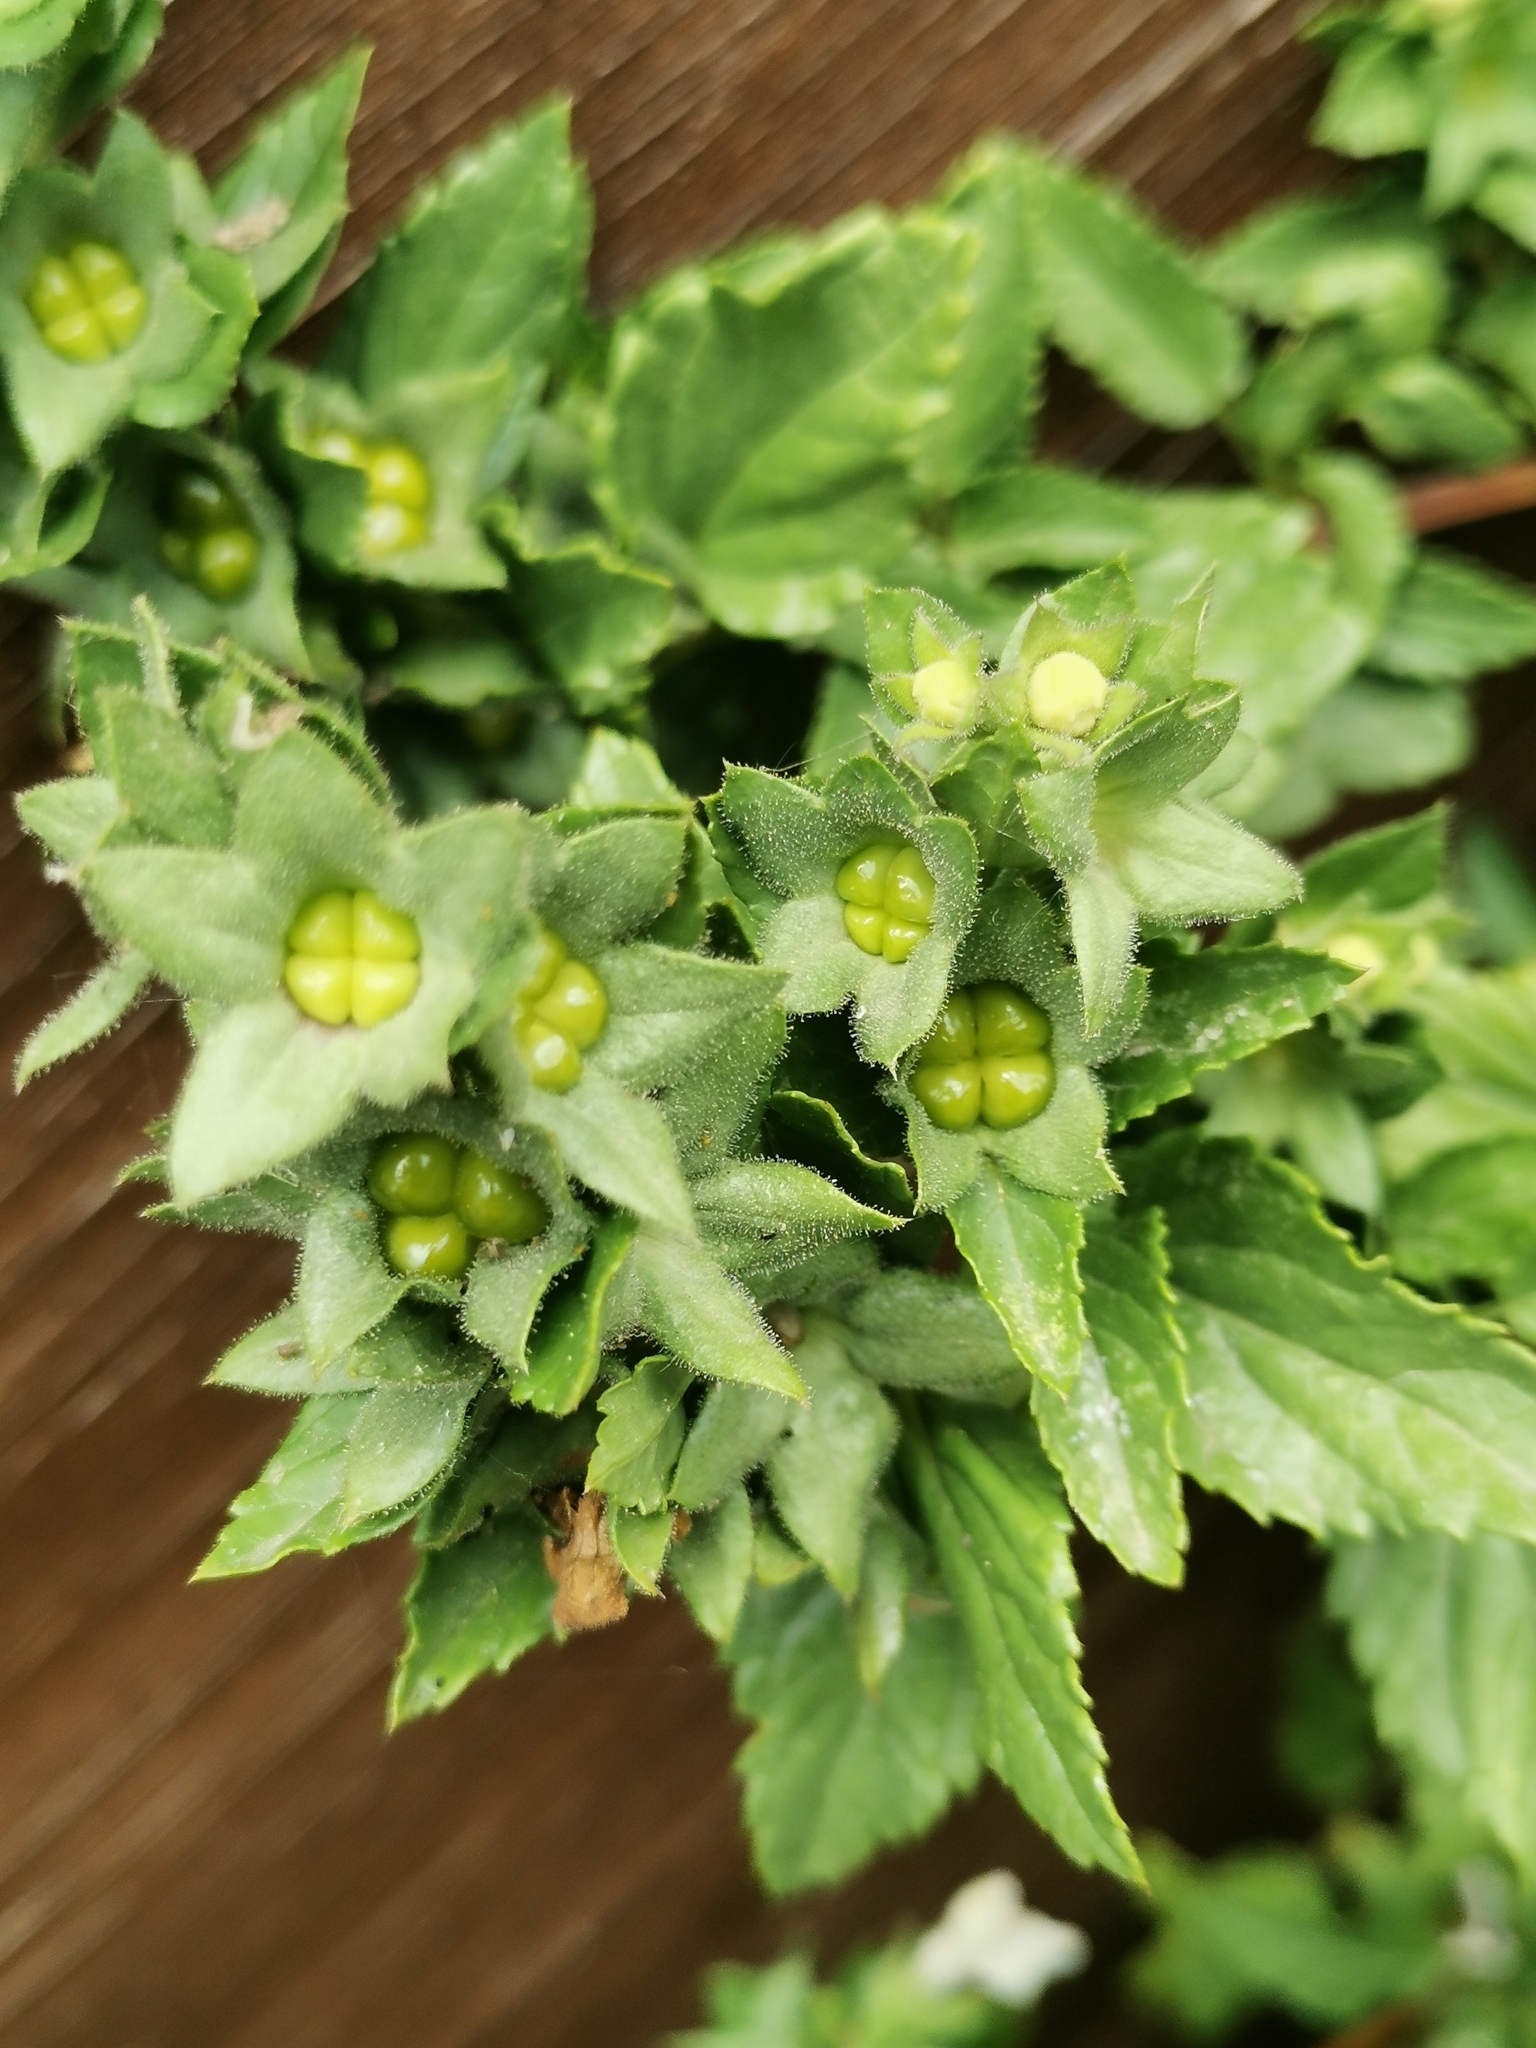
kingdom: Plantae
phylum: Tracheophyta
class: Magnoliopsida
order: Lamiales
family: Lamiaceae
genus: Prasium
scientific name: Prasium majus
